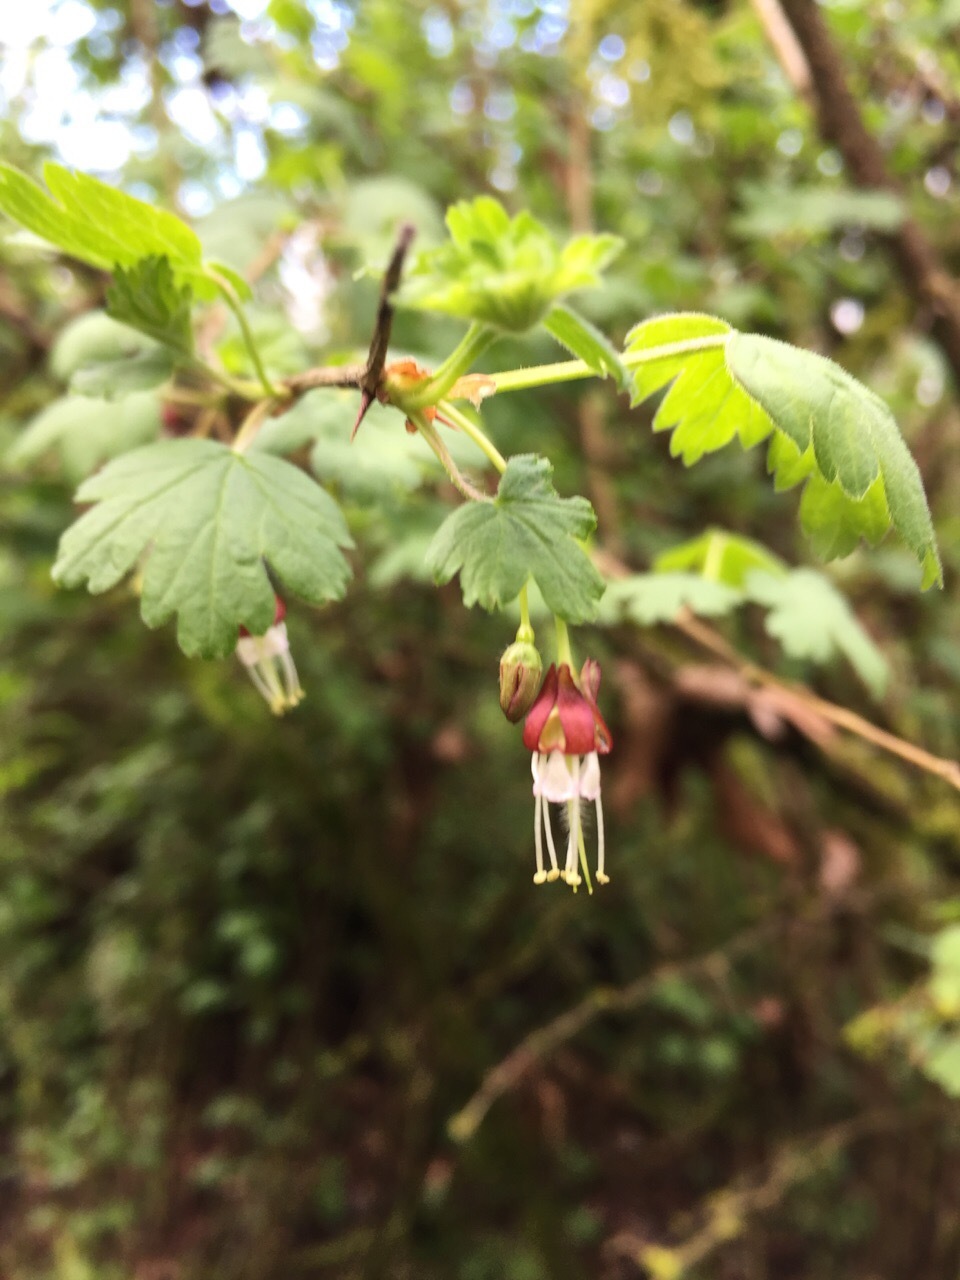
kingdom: Plantae
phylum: Tracheophyta
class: Magnoliopsida
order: Saxifragales
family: Grossulariaceae
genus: Ribes
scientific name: Ribes divaricatum
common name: Wild black gooseberry
